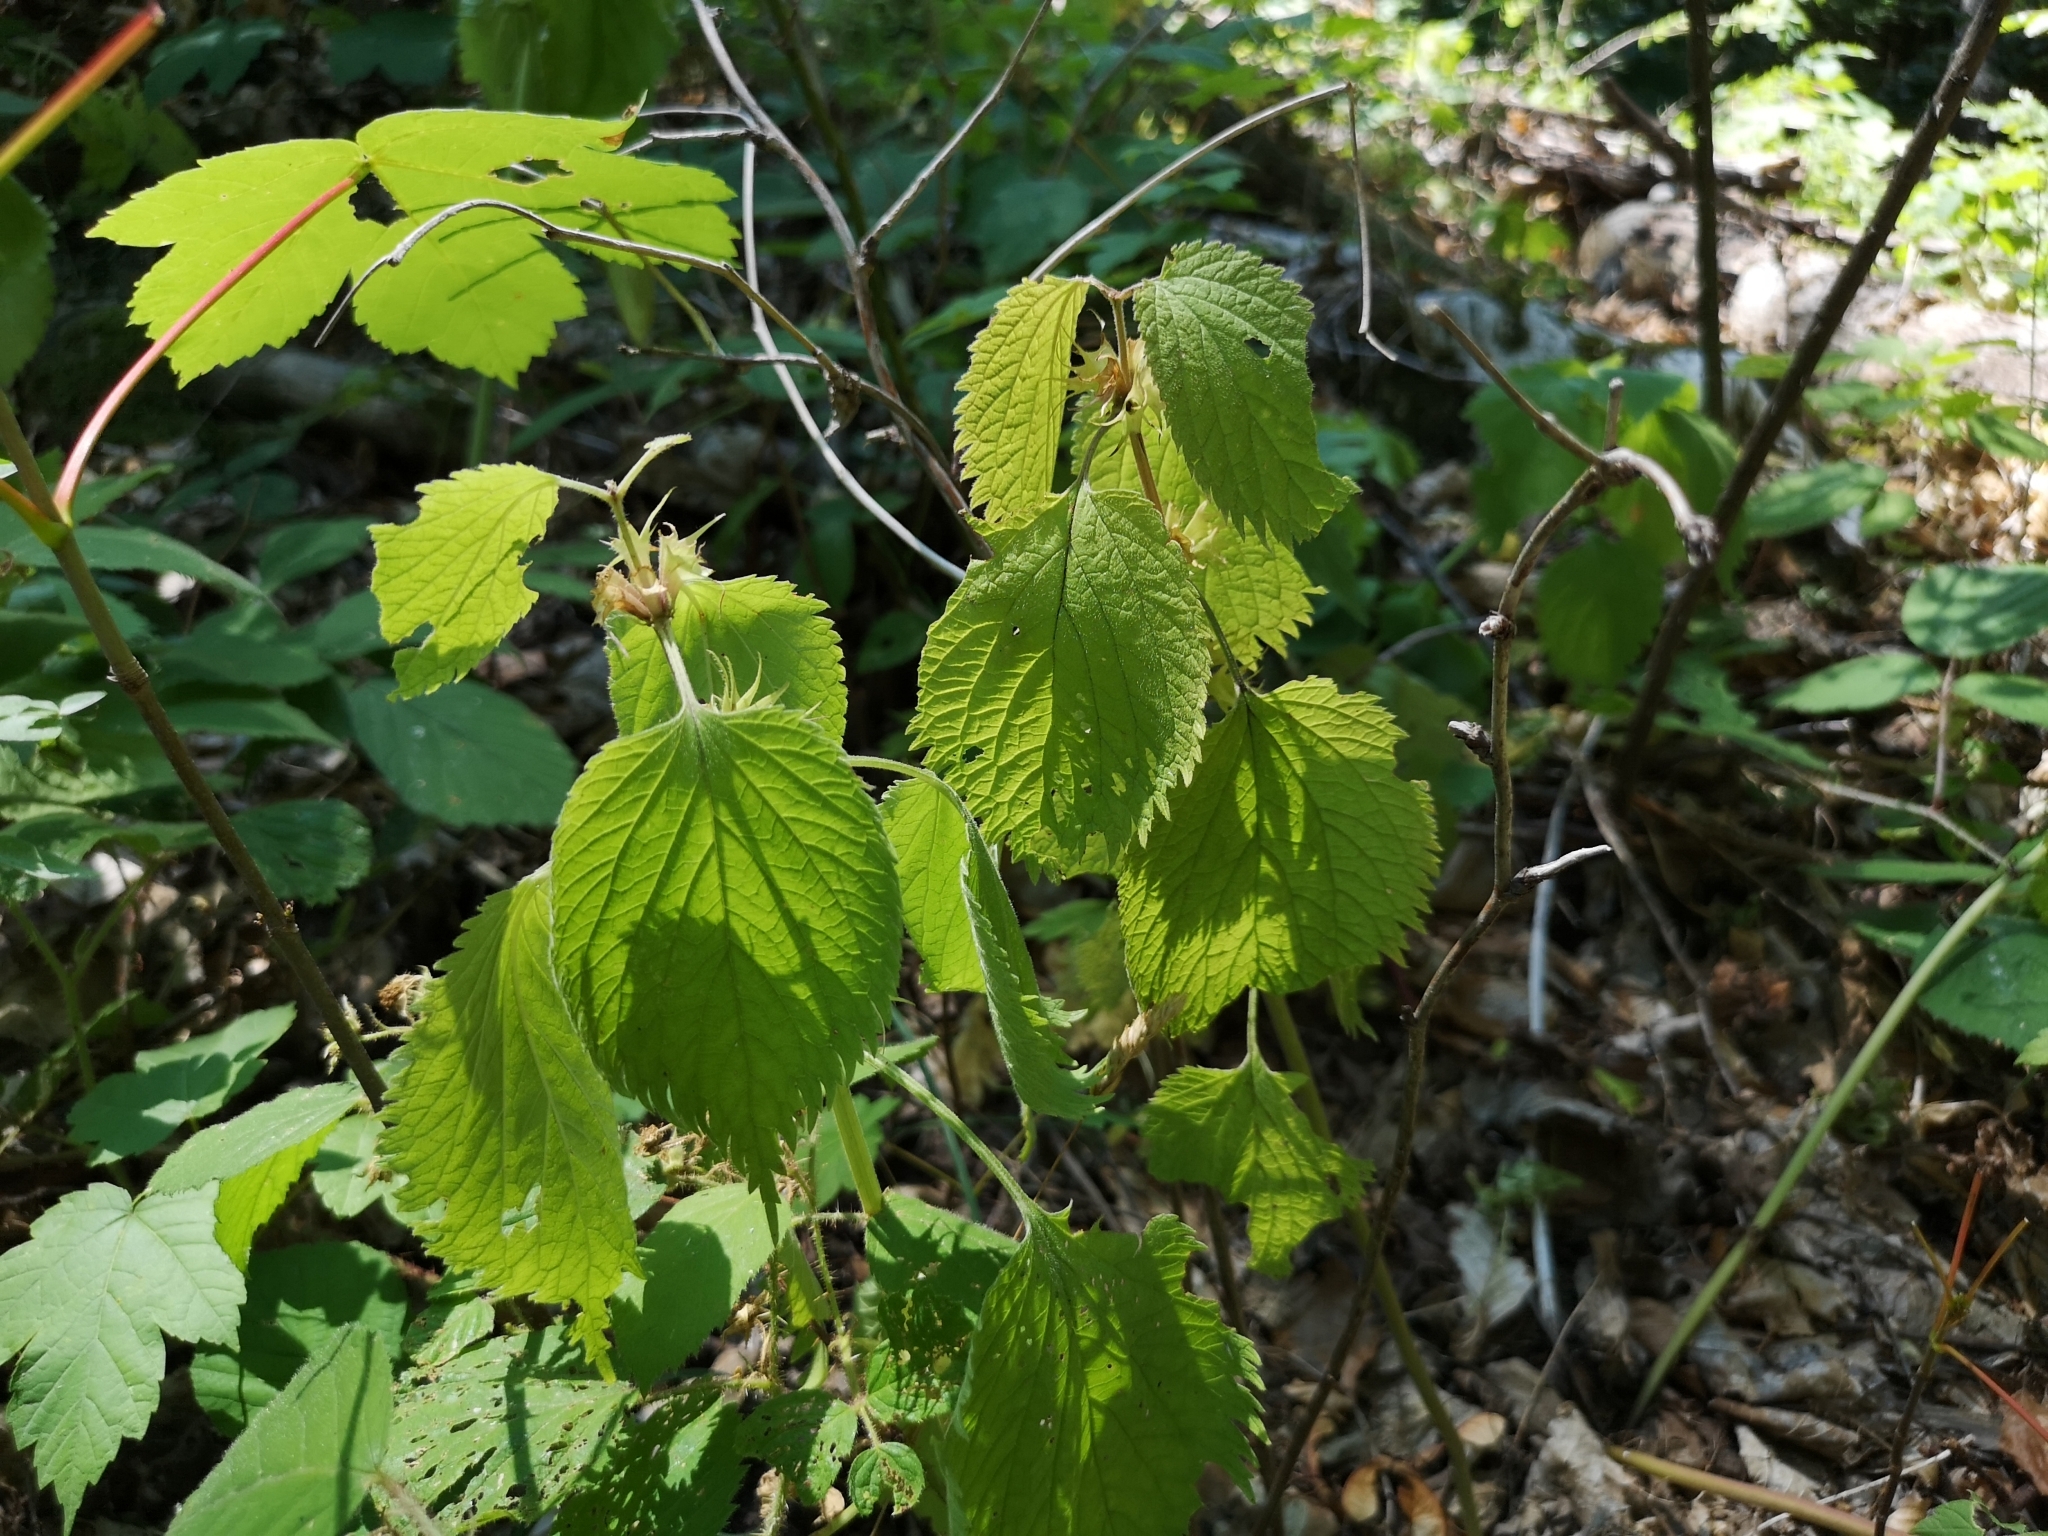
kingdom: Plantae
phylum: Tracheophyta
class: Magnoliopsida
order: Lamiales
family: Lamiaceae
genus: Lamium
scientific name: Lamium orvala
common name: Balm-leaved archangel
